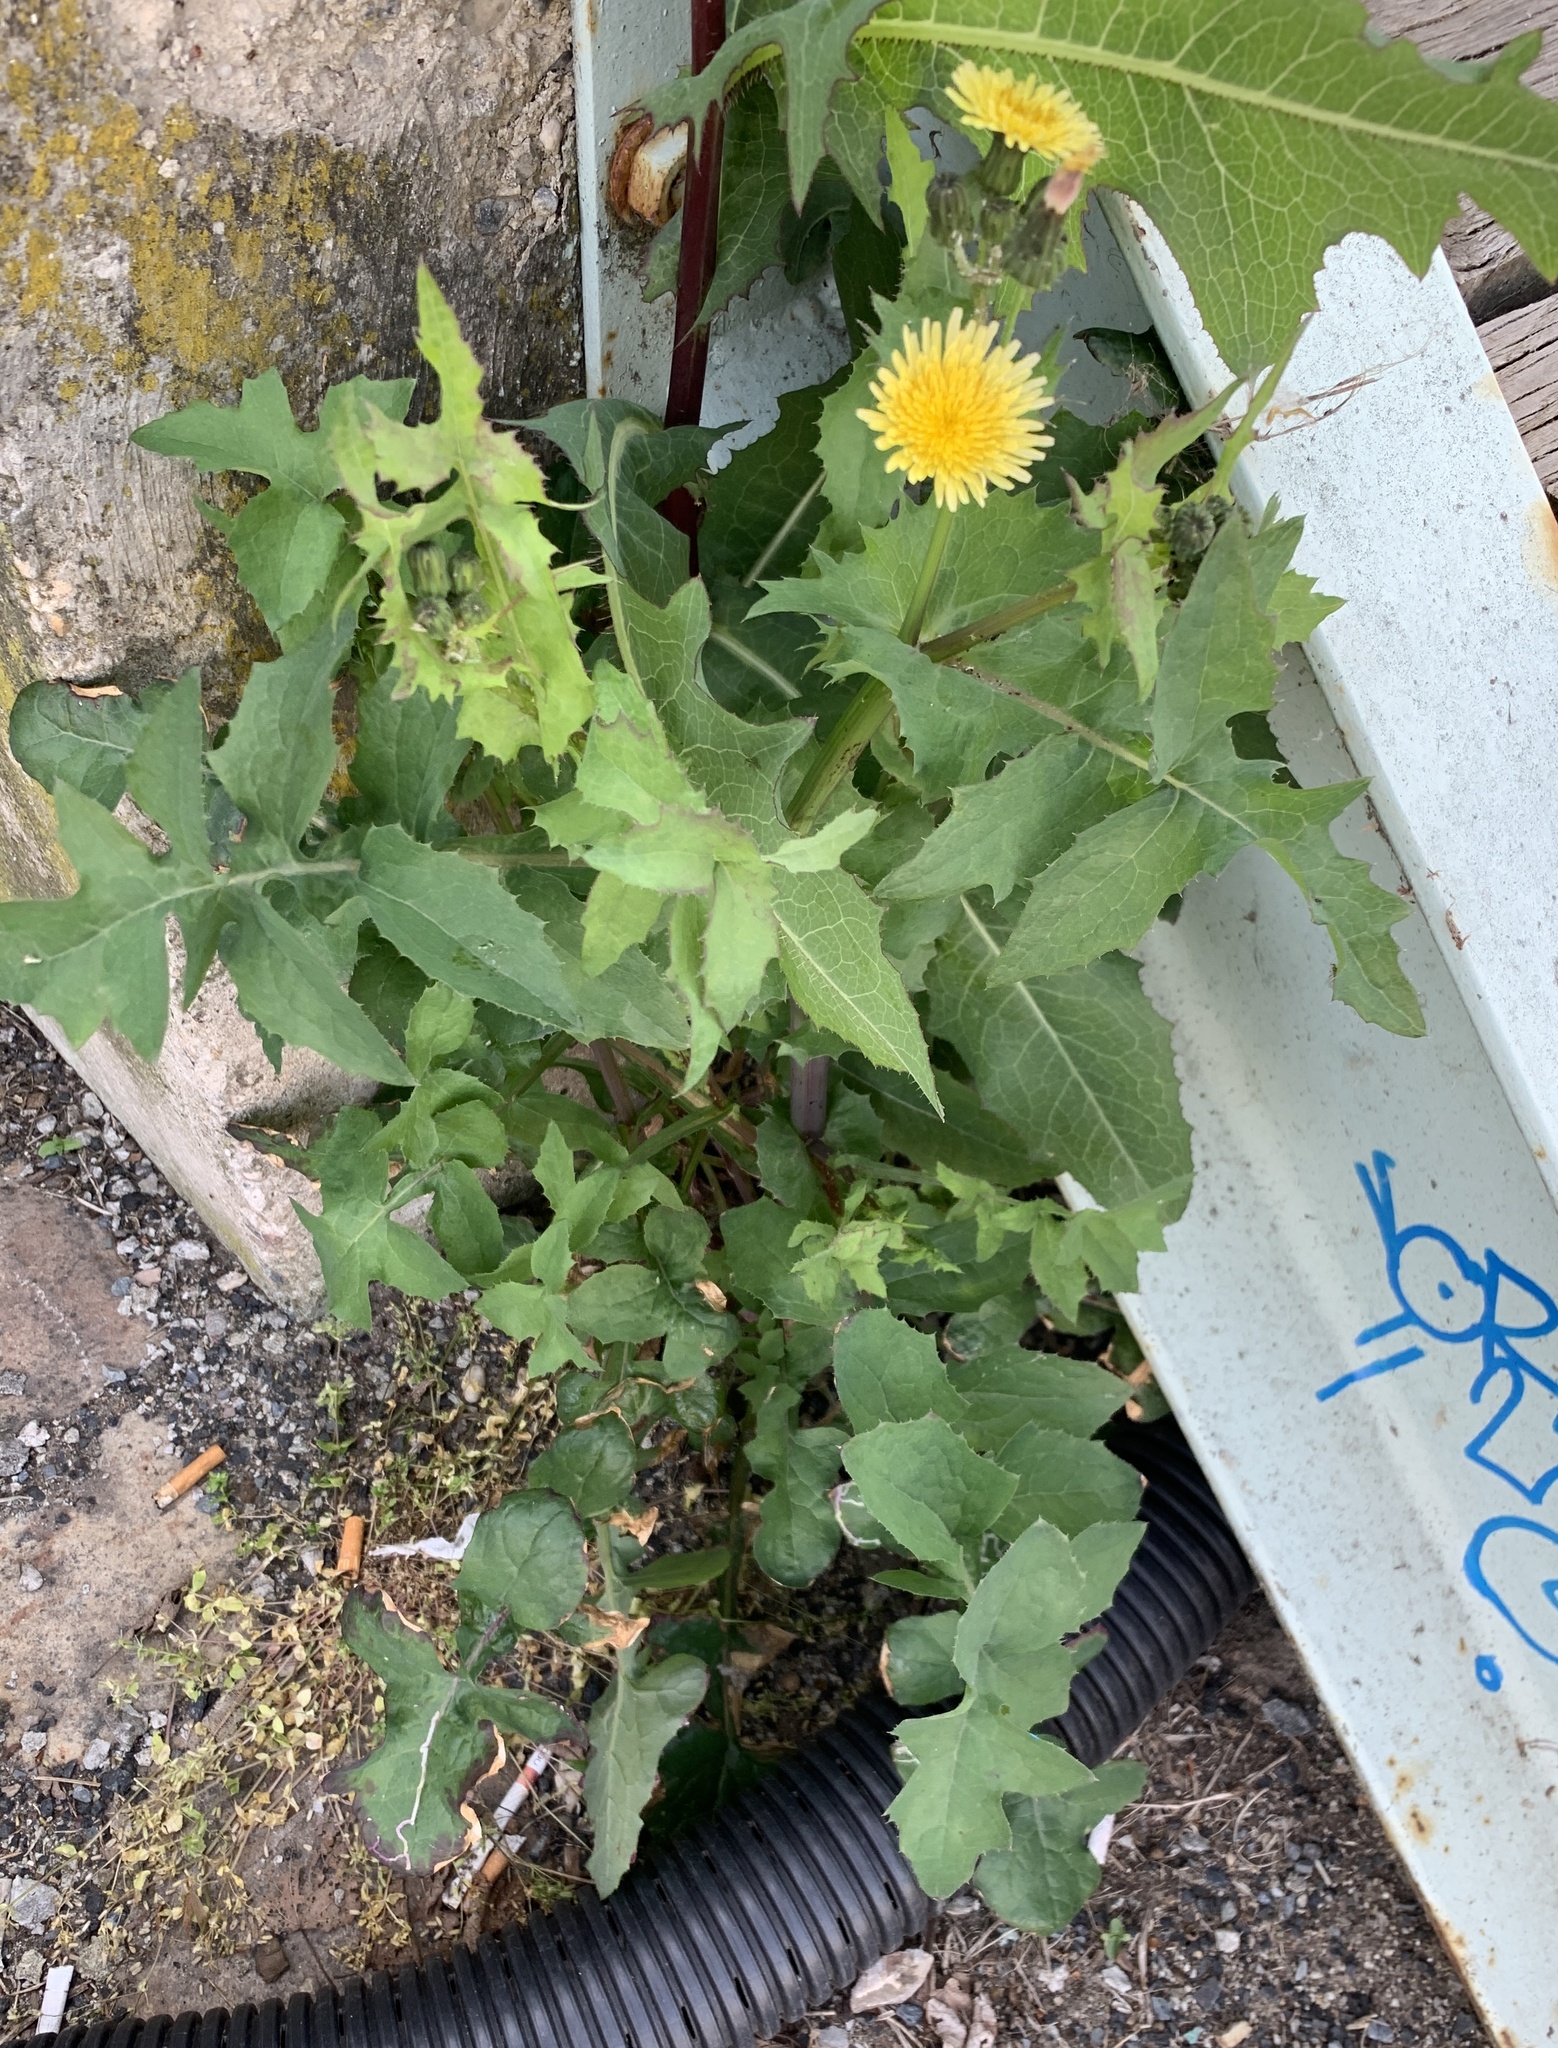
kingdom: Plantae
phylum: Tracheophyta
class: Magnoliopsida
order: Asterales
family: Asteraceae
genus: Sonchus
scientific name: Sonchus oleraceus
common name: Common sowthistle
